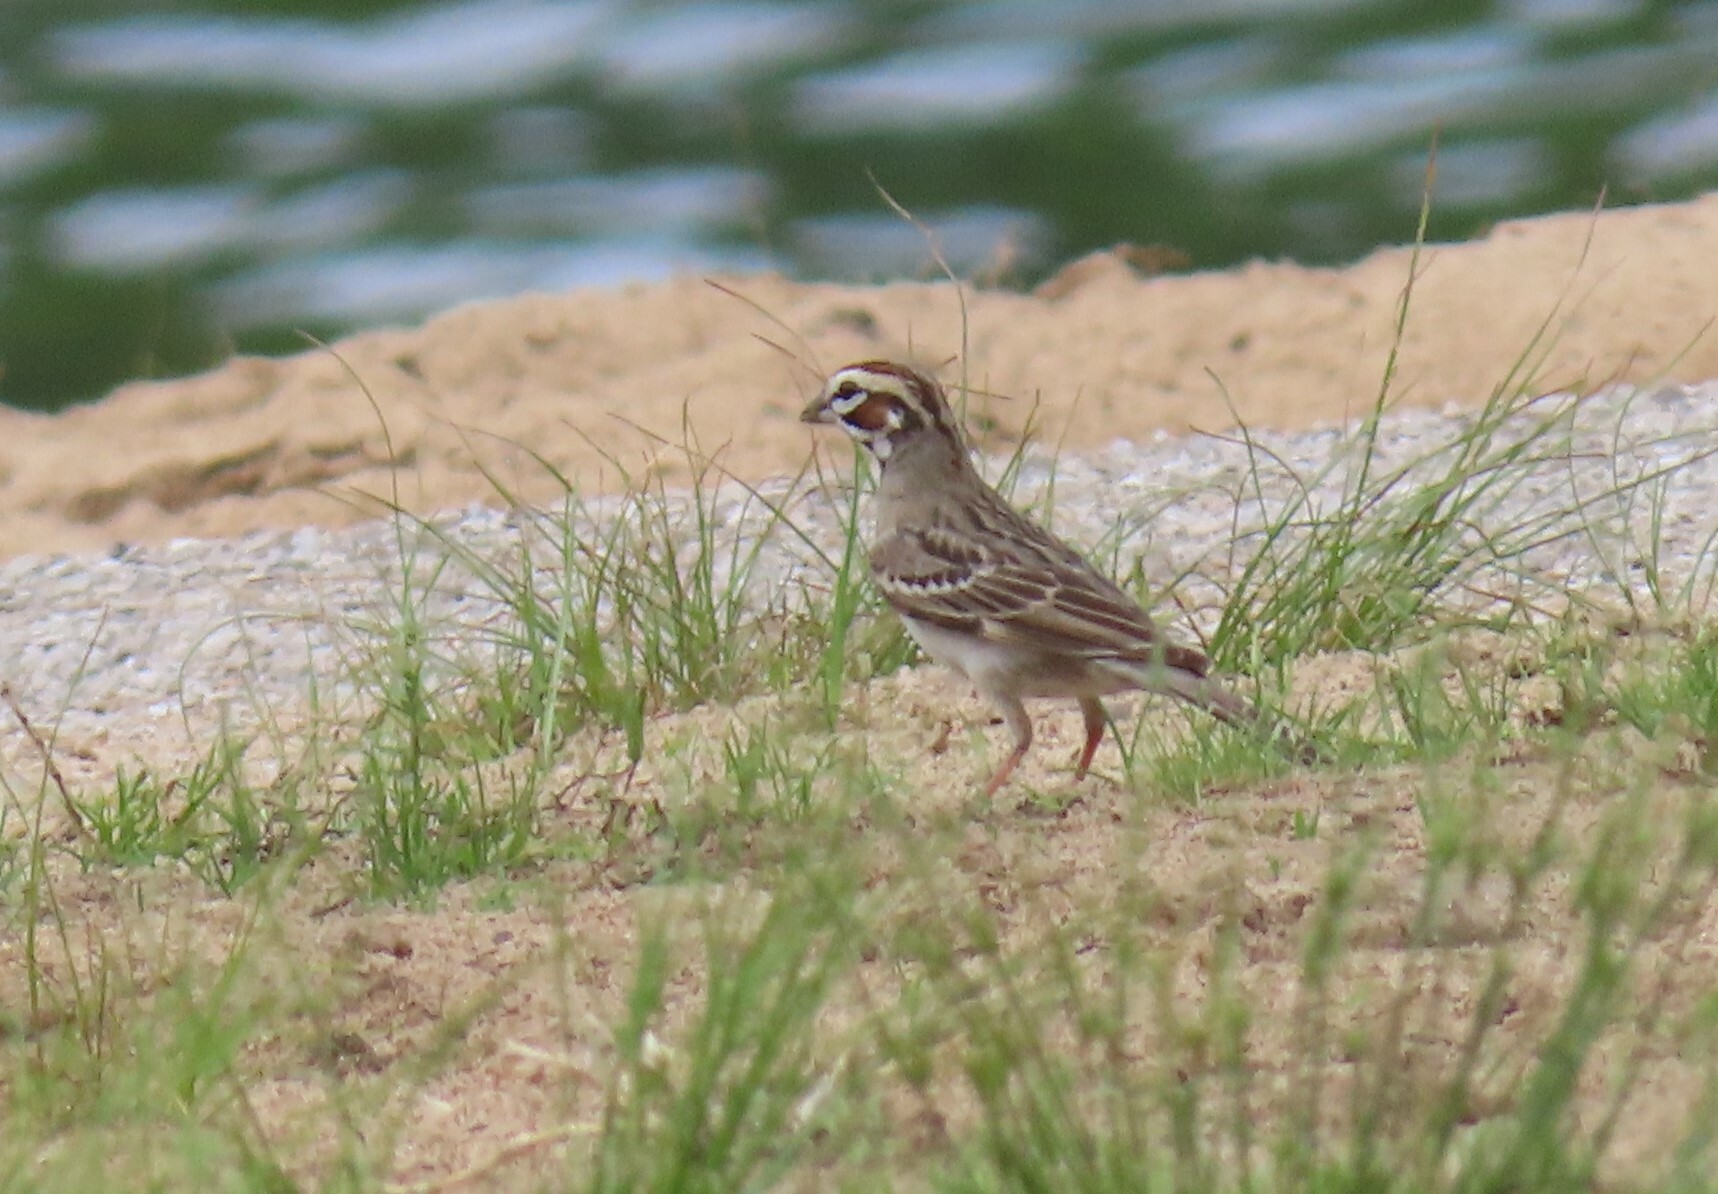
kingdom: Animalia
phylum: Chordata
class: Aves
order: Passeriformes
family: Passerellidae
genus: Chondestes
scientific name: Chondestes grammacus
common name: Lark sparrow
